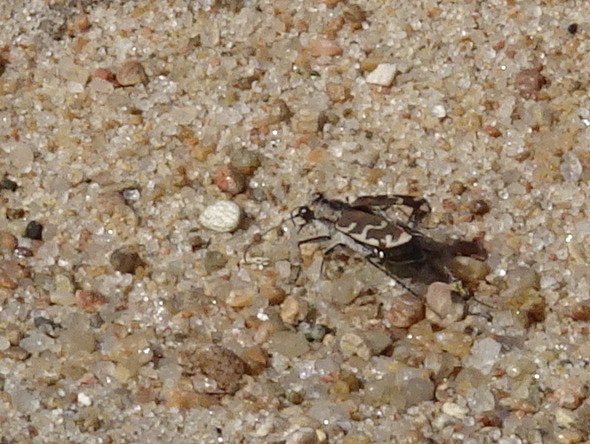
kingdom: Animalia
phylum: Arthropoda
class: Insecta
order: Coleoptera
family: Carabidae
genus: Cicindela
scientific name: Cicindela repanda
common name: Bronzed tiger beetle
